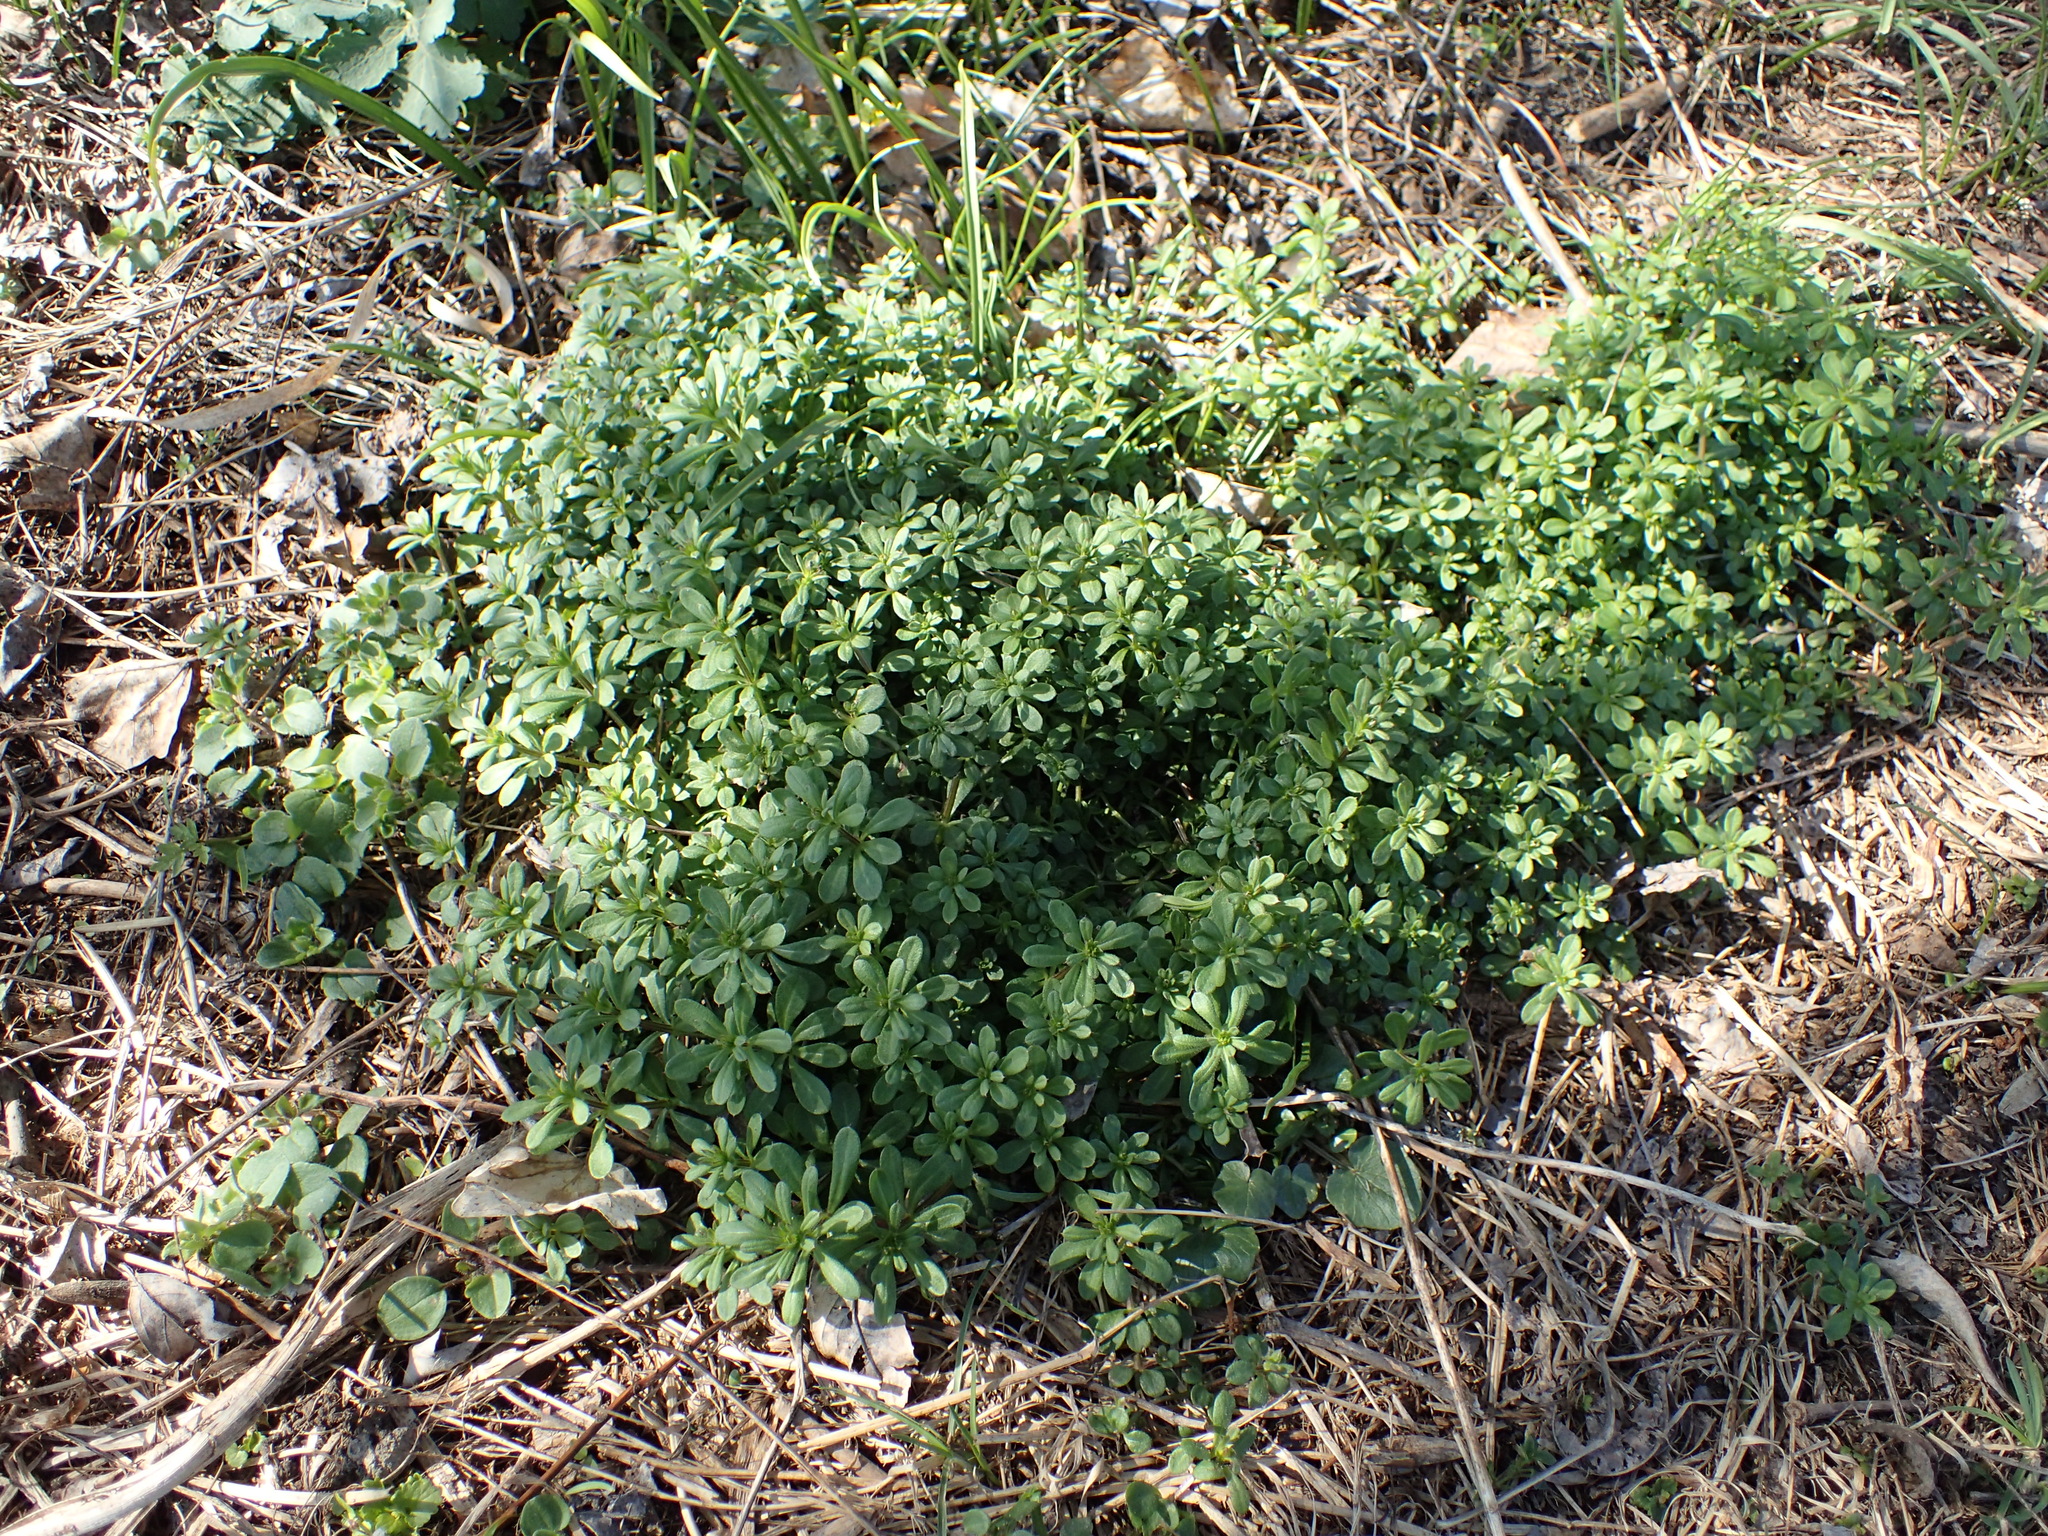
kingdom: Plantae
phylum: Tracheophyta
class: Magnoliopsida
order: Gentianales
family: Rubiaceae
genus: Galium
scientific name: Galium aparine
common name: Cleavers
